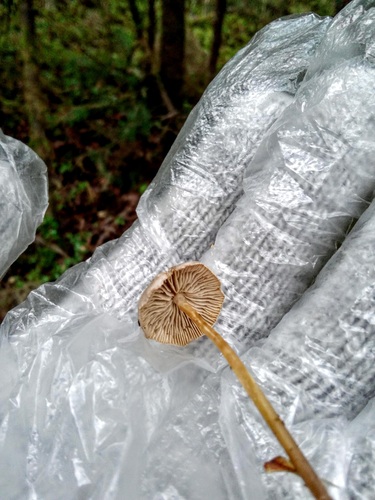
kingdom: Fungi
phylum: Basidiomycota
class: Agaricomycetes
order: Agaricales
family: Mycenaceae
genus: Mycena
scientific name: Mycena
